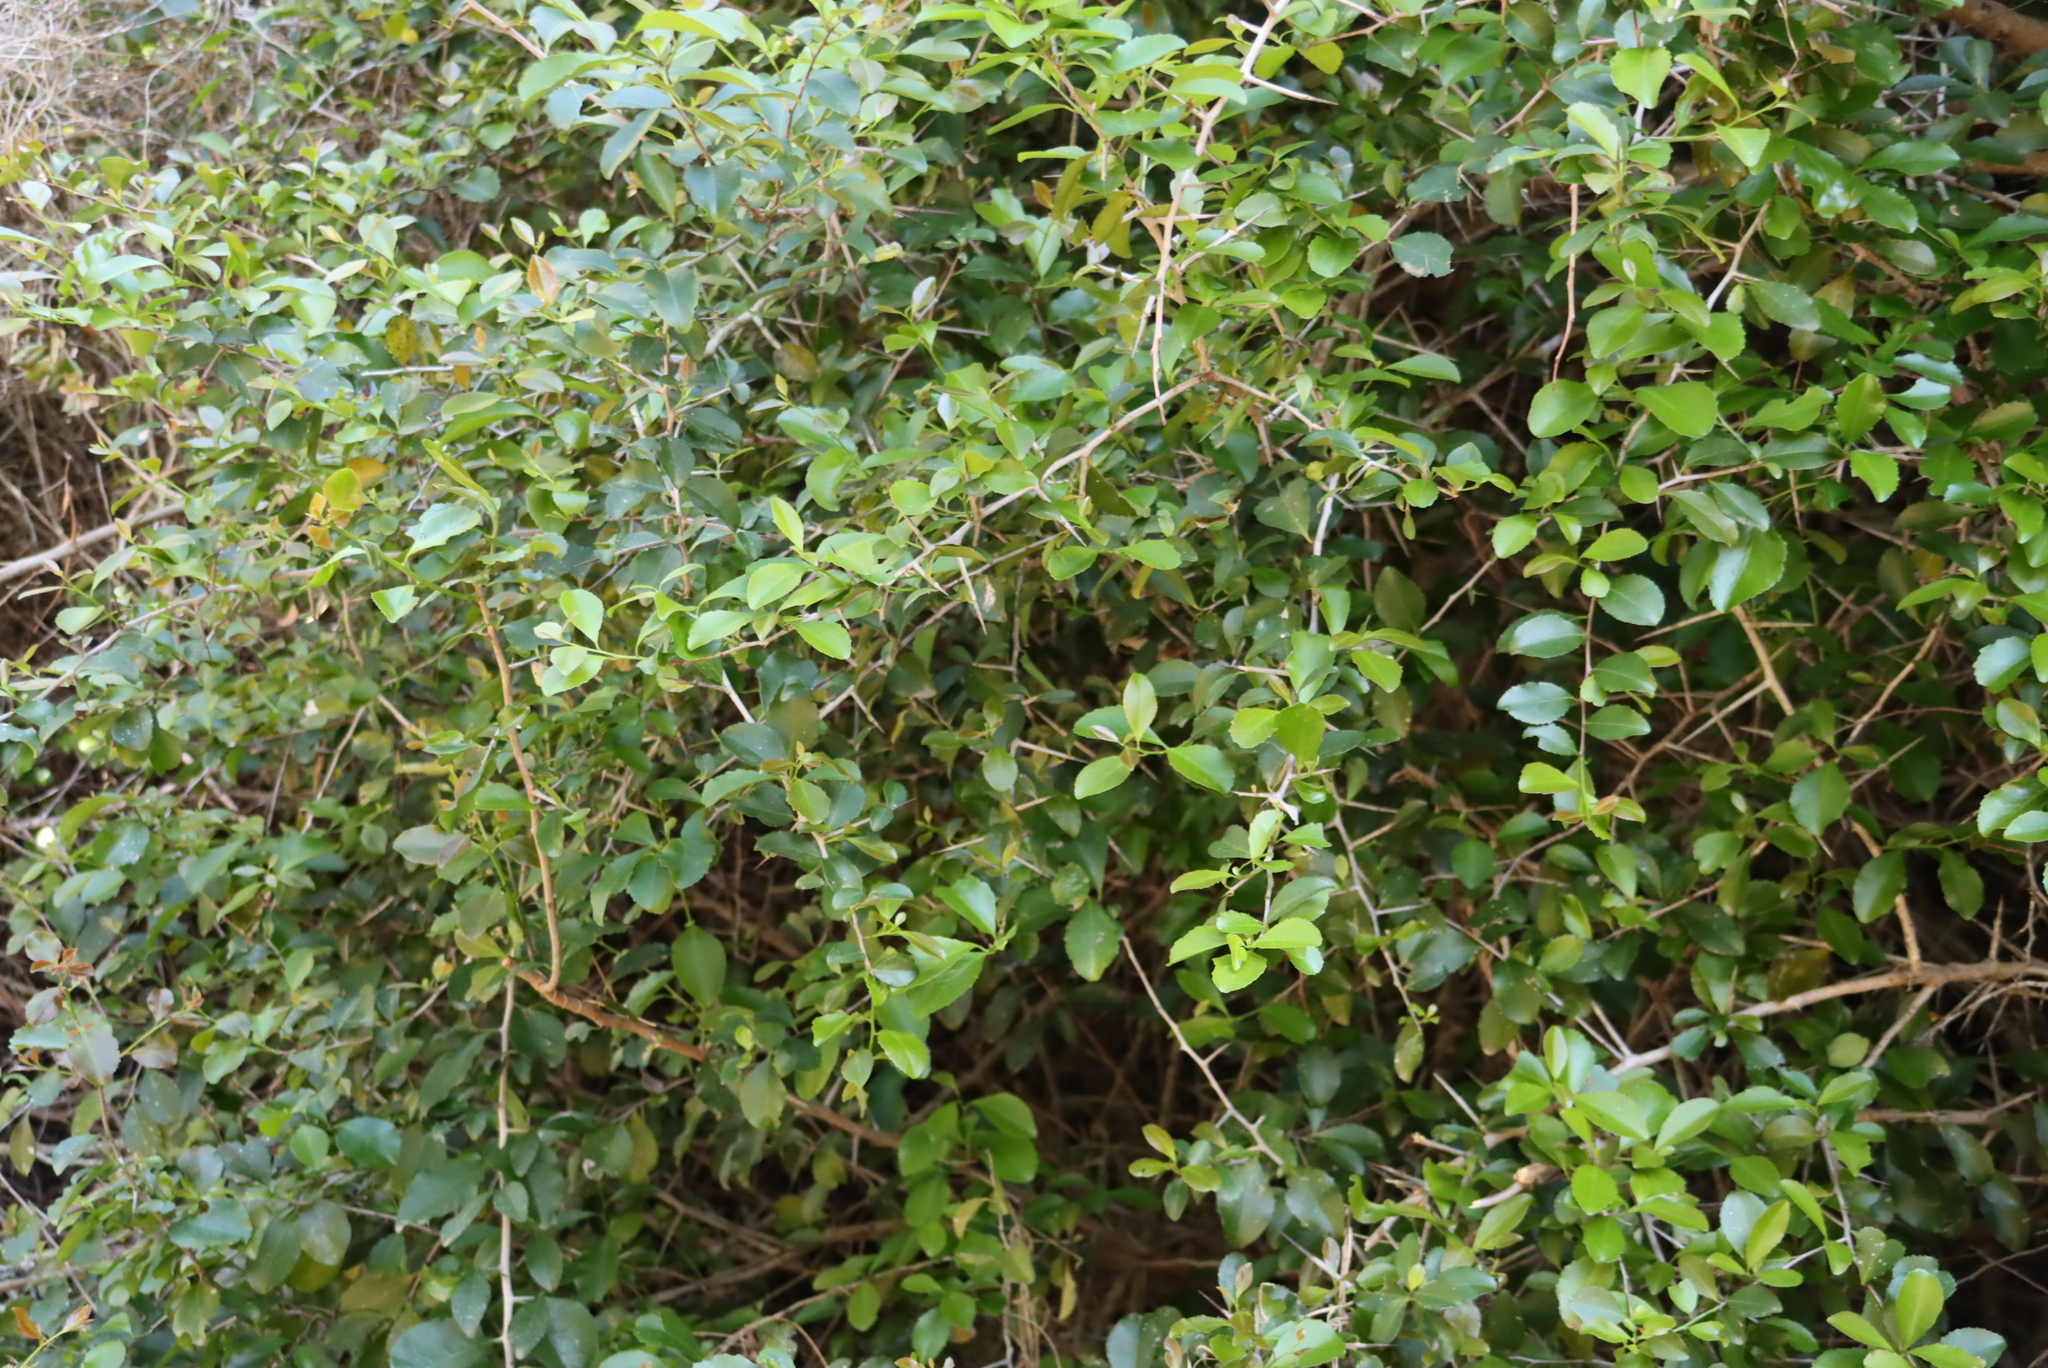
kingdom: Plantae
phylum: Tracheophyta
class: Magnoliopsida
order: Celastrales
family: Celastraceae
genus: Gymnosporia
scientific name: Gymnosporia nemorosa
